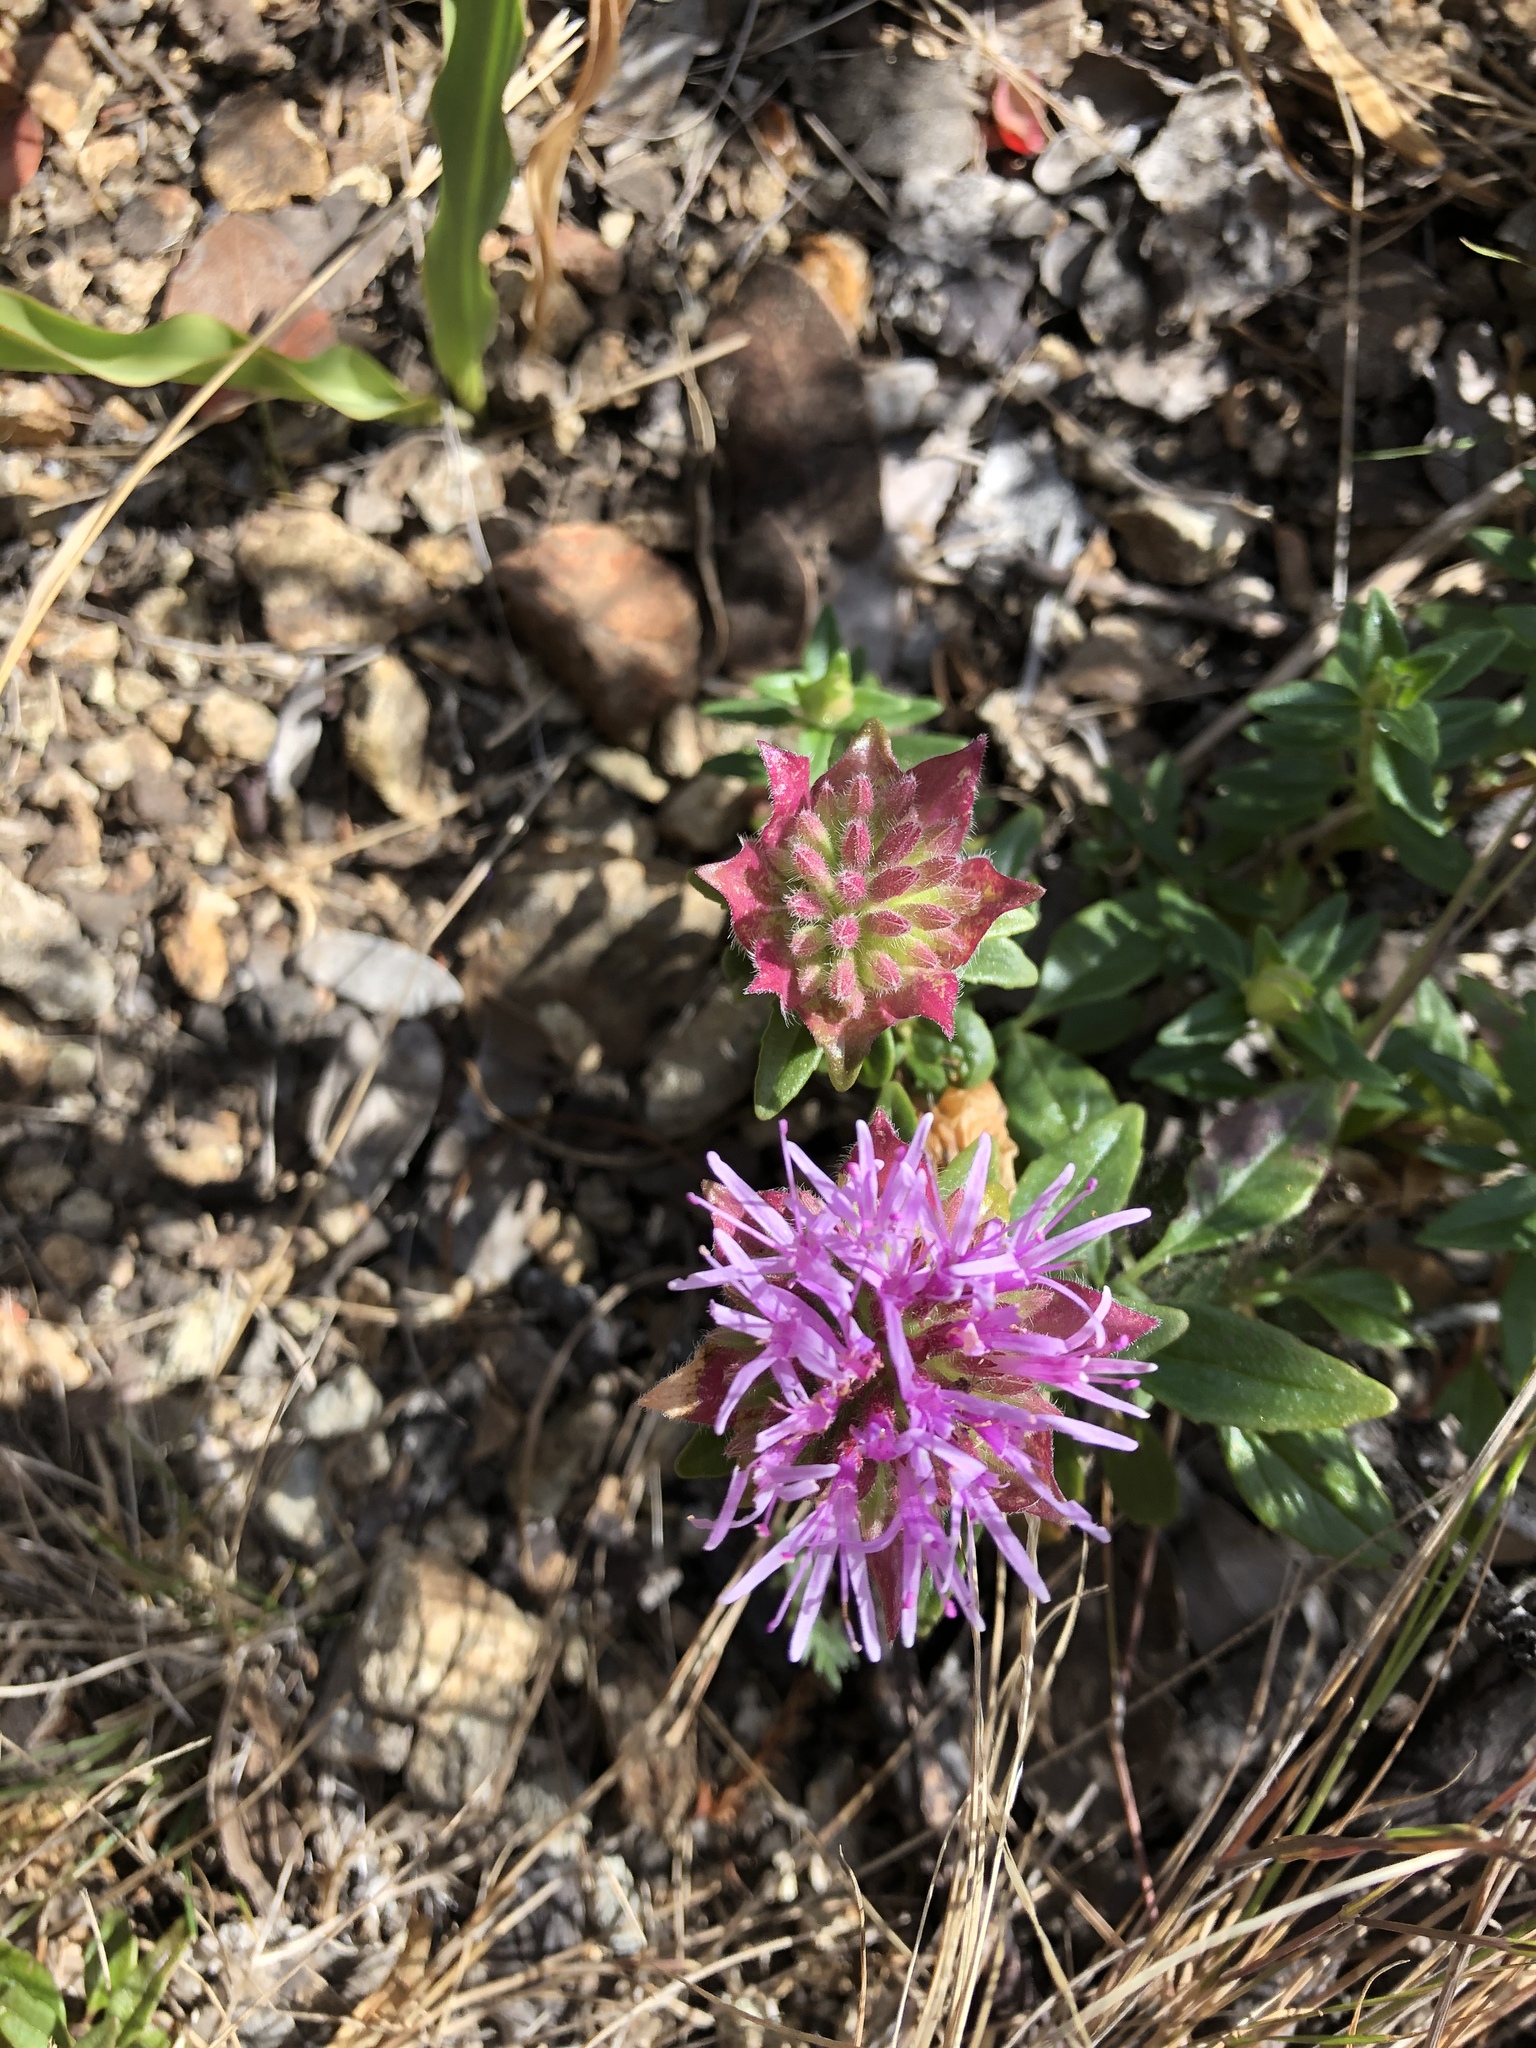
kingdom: Plantae
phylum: Tracheophyta
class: Magnoliopsida
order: Lamiales
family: Lamiaceae
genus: Monardella
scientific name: Monardella palmeri
